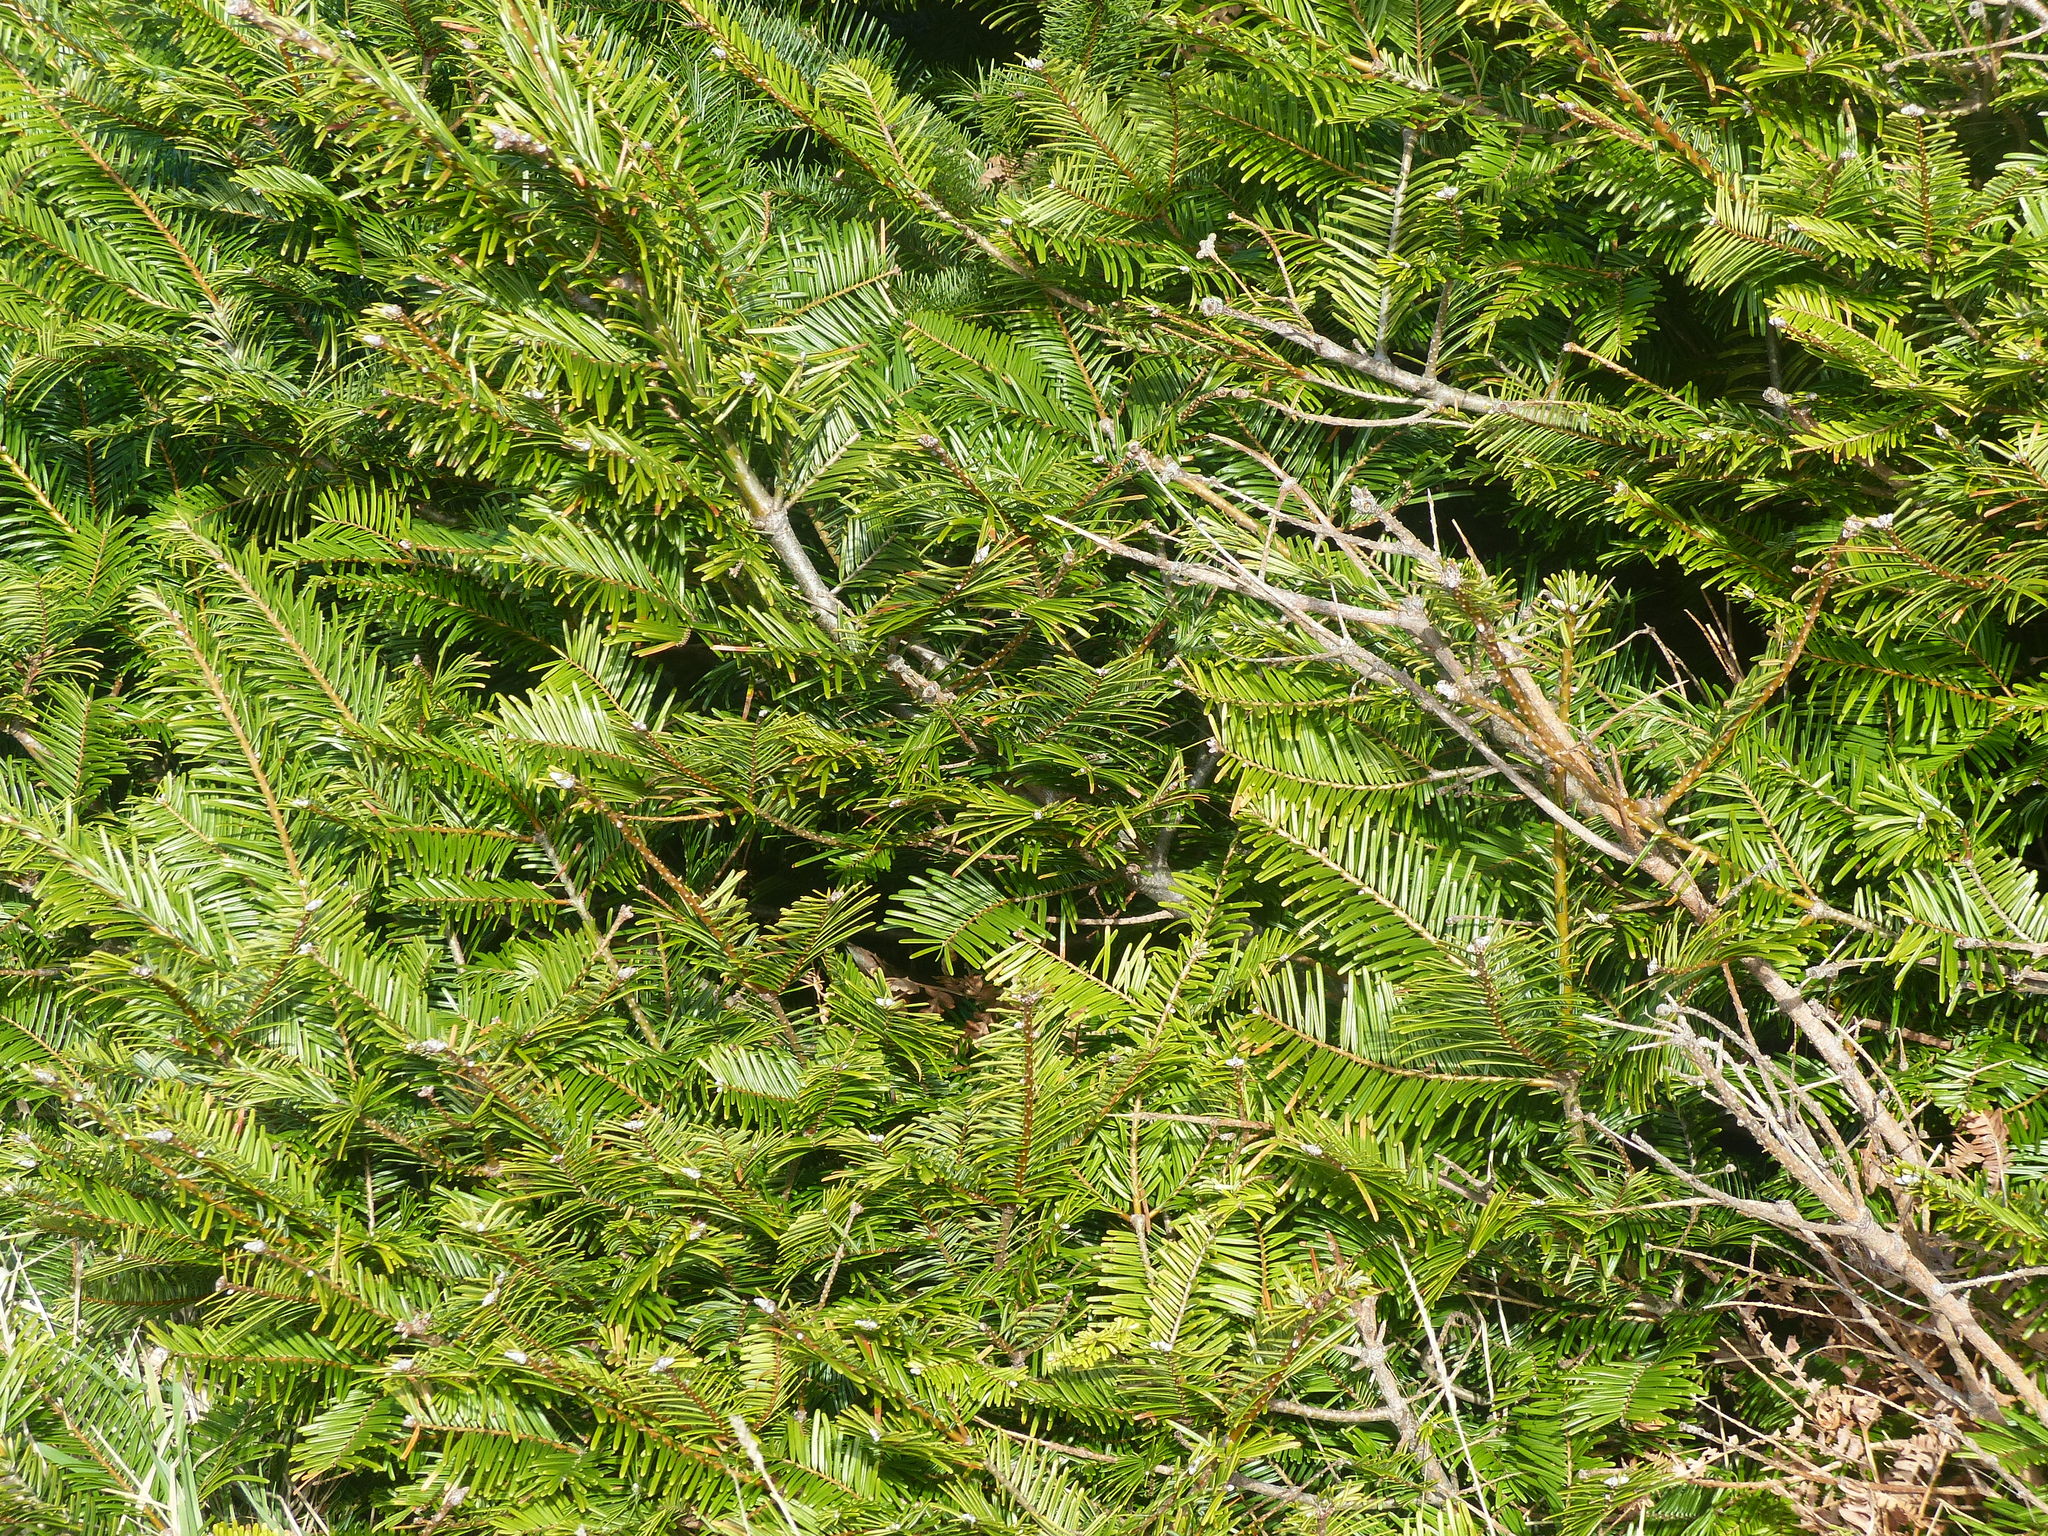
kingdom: Plantae
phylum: Tracheophyta
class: Pinopsida
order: Pinales
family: Pinaceae
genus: Abies
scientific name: Abies grandis
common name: Giant fir
